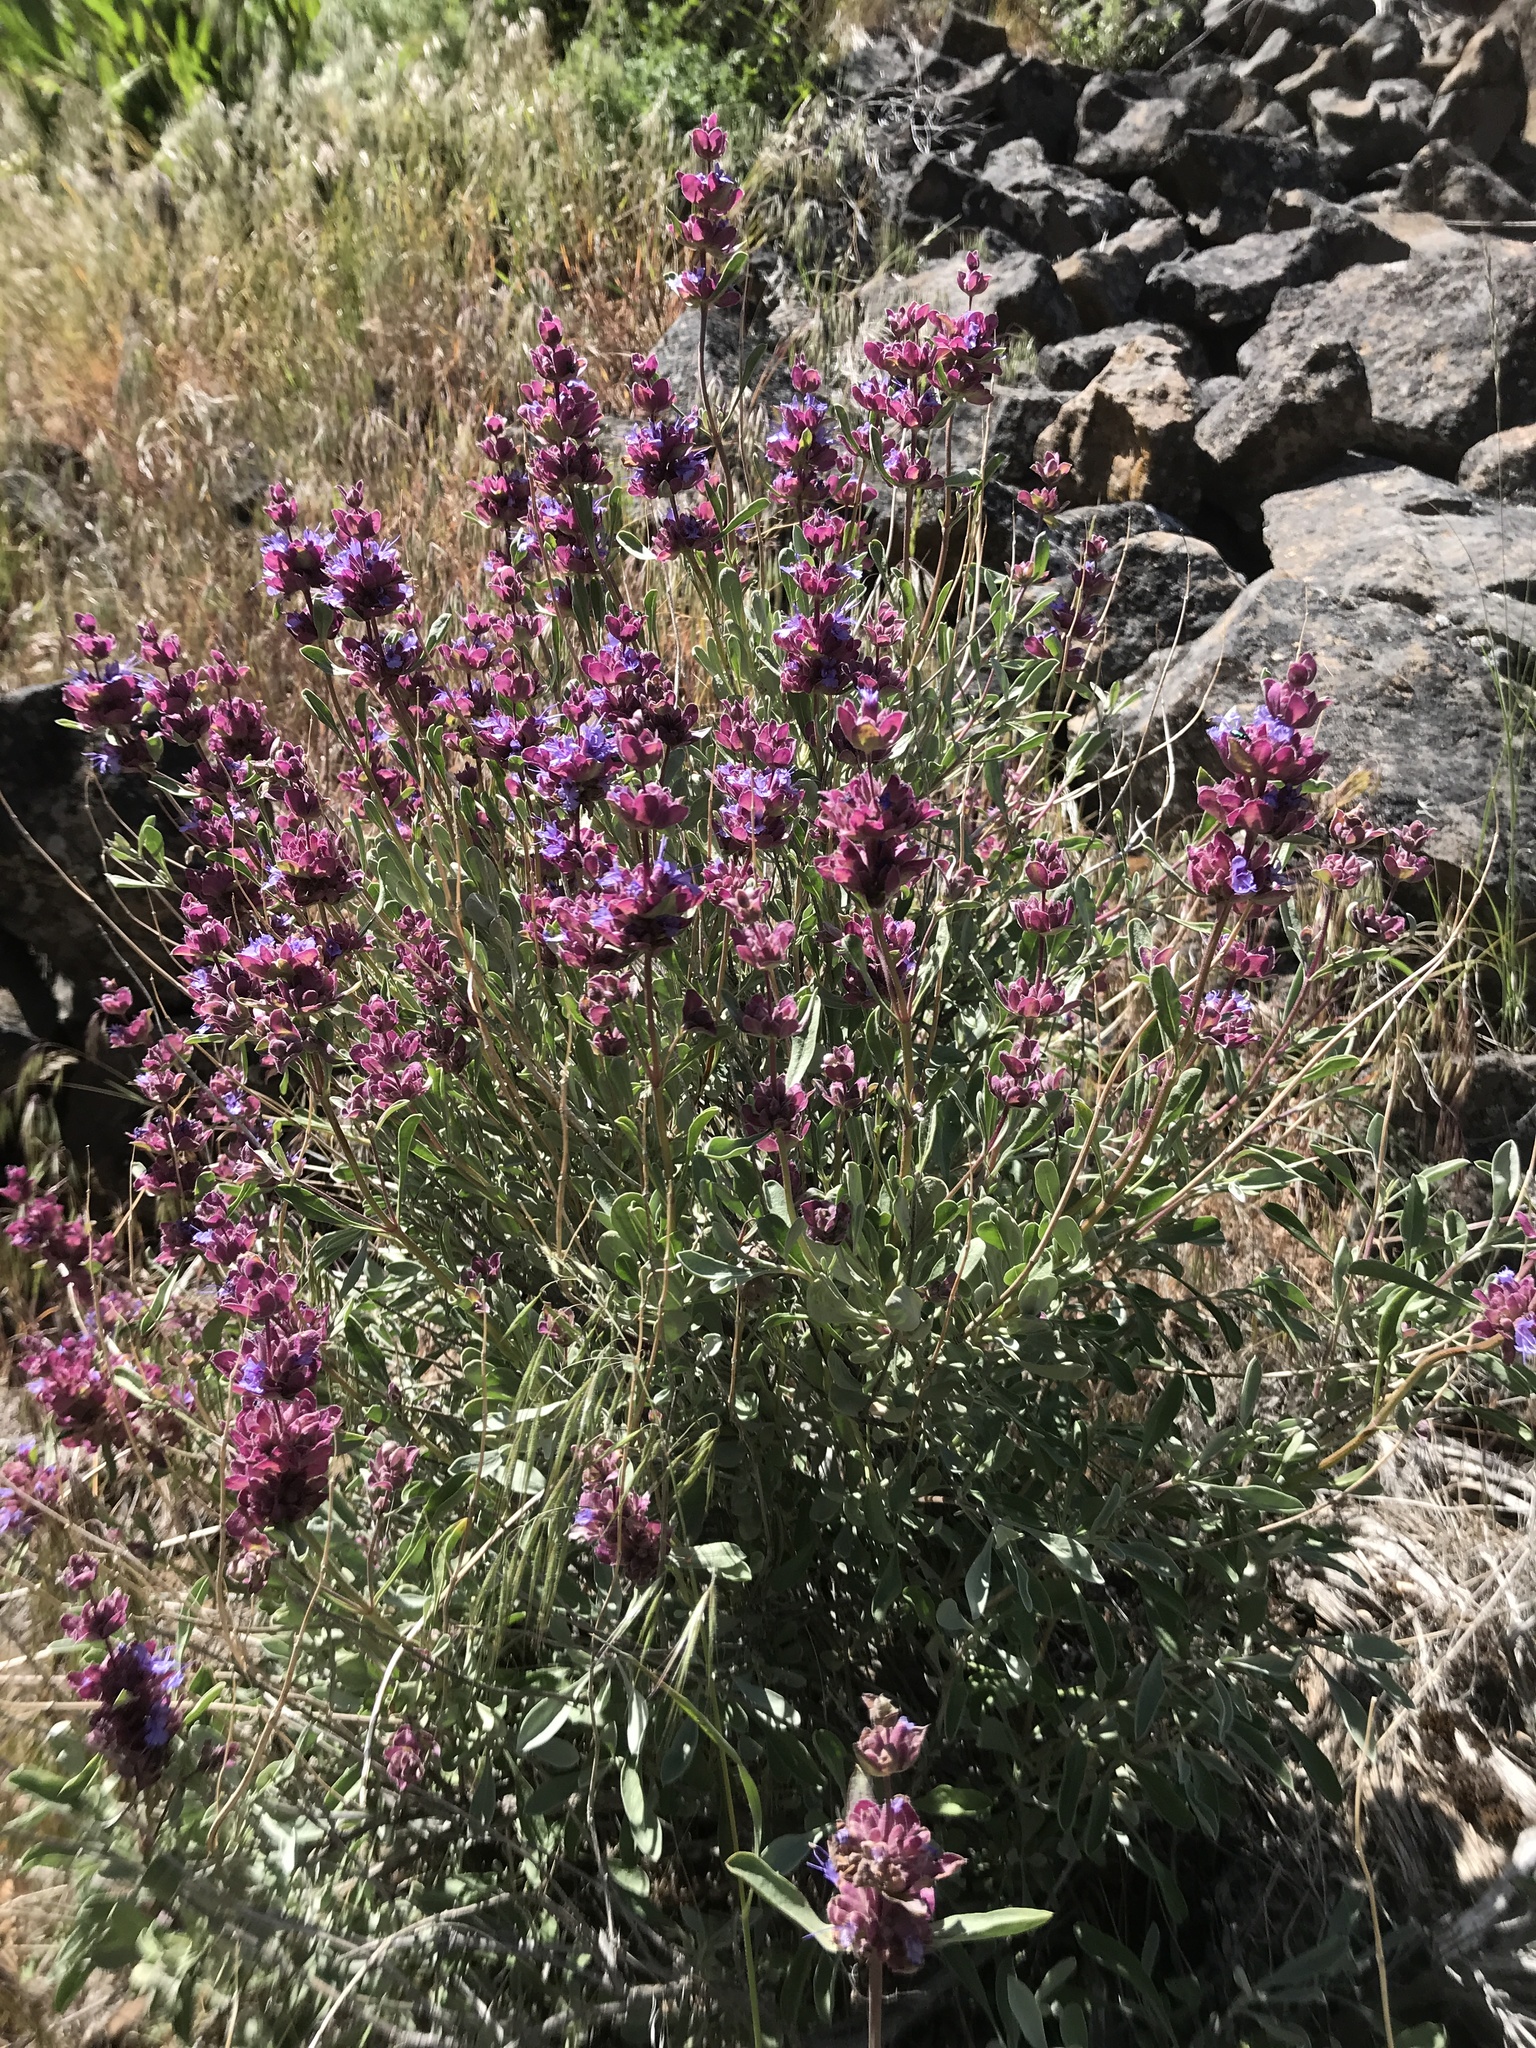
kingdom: Plantae
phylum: Tracheophyta
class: Magnoliopsida
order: Lamiales
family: Lamiaceae
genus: Salvia
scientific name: Salvia dorrii
